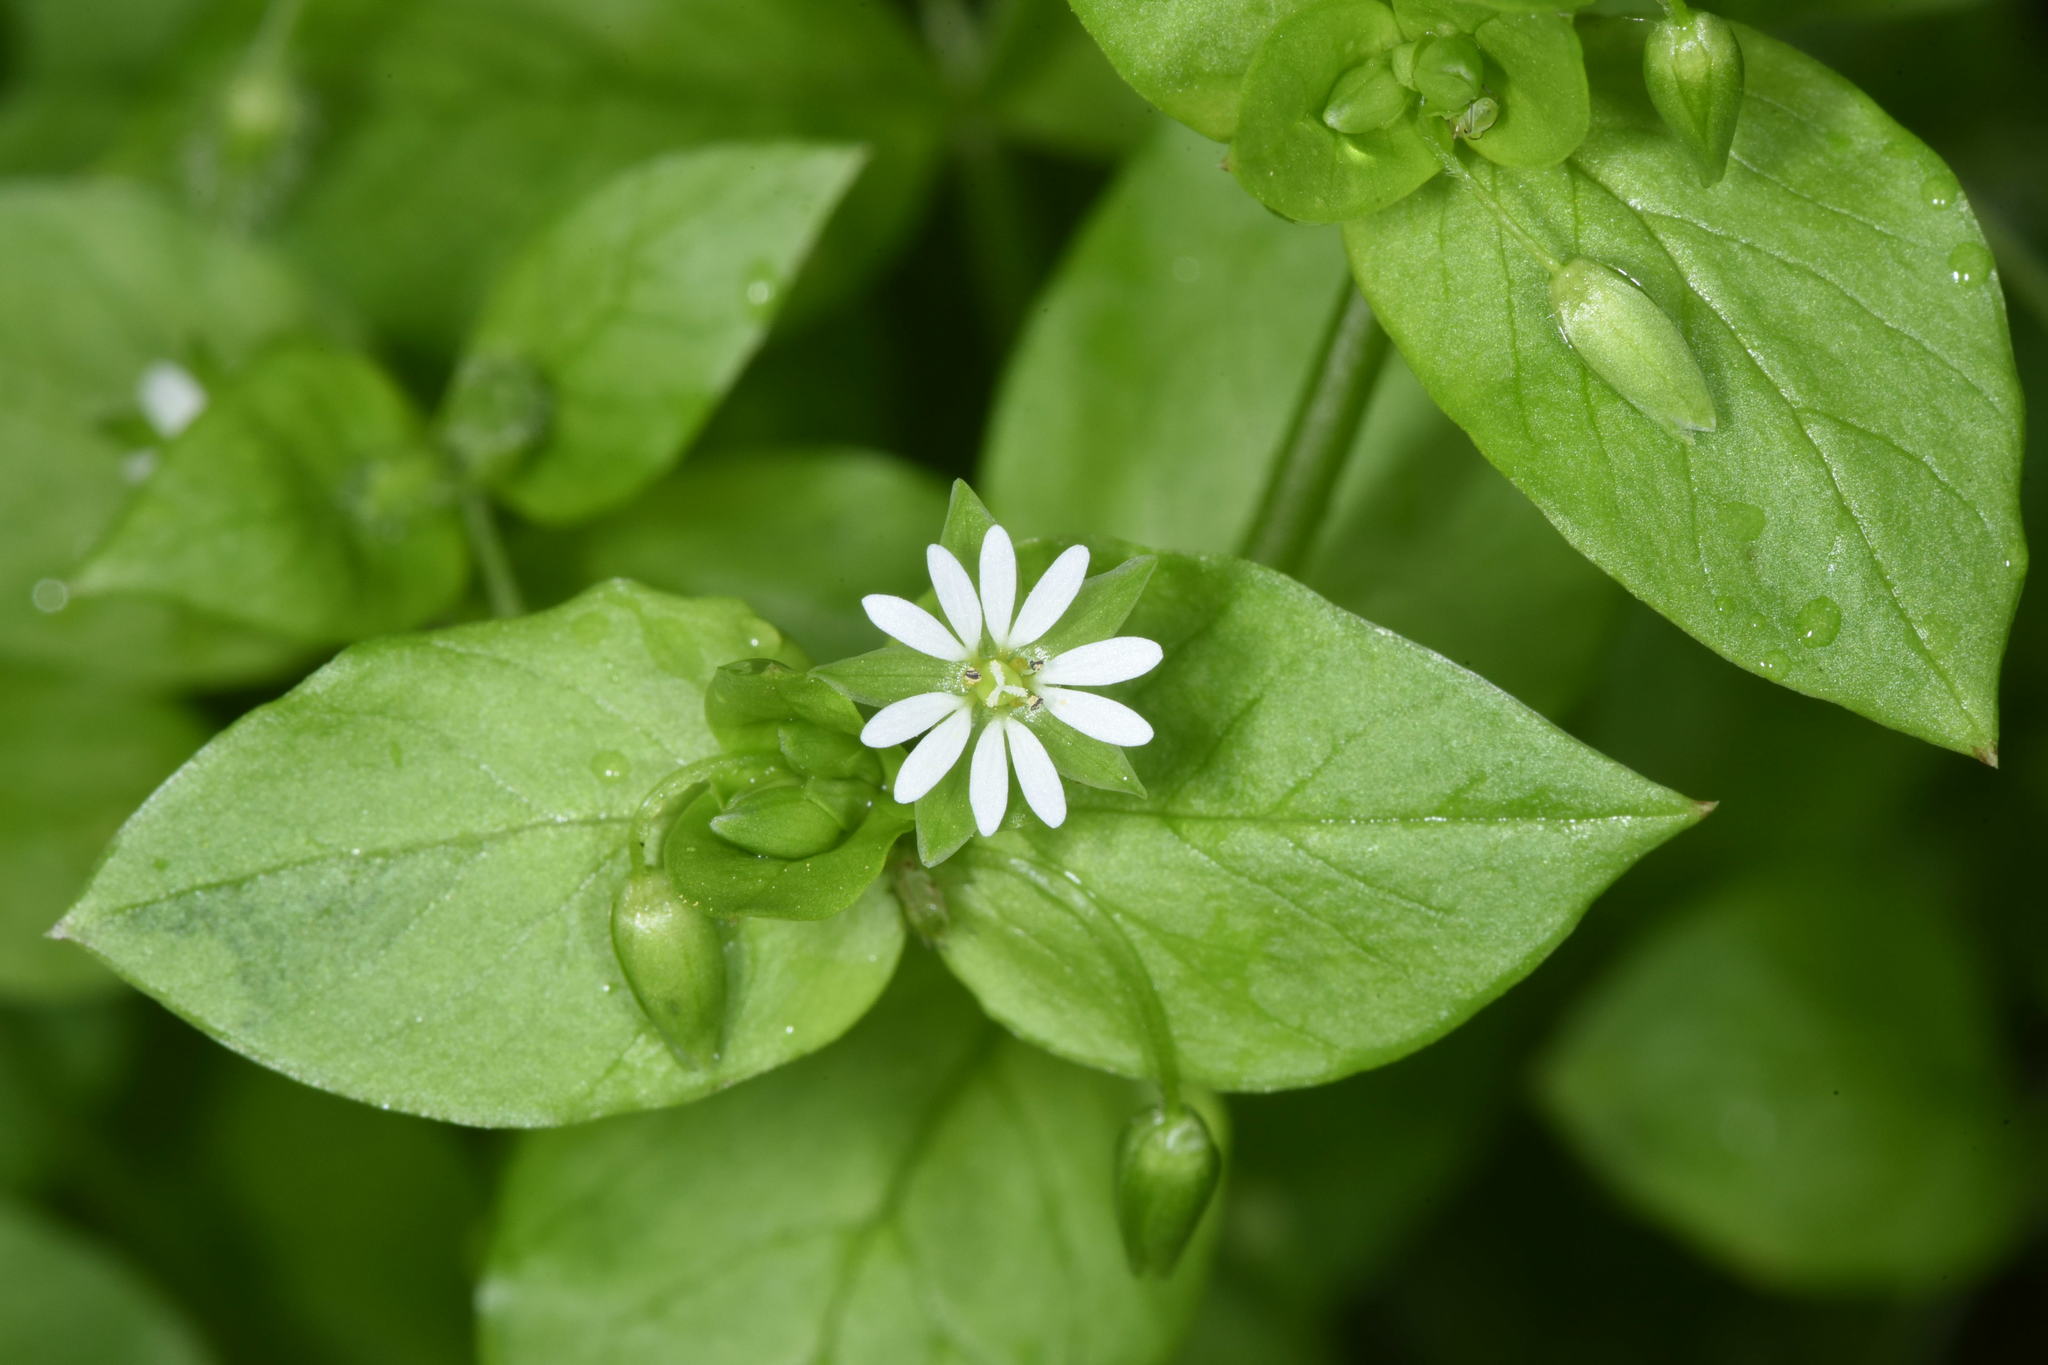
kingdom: Plantae
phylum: Tracheophyta
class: Magnoliopsida
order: Caryophyllales
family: Caryophyllaceae
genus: Stellaria
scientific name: Stellaria media
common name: Common chickweed
